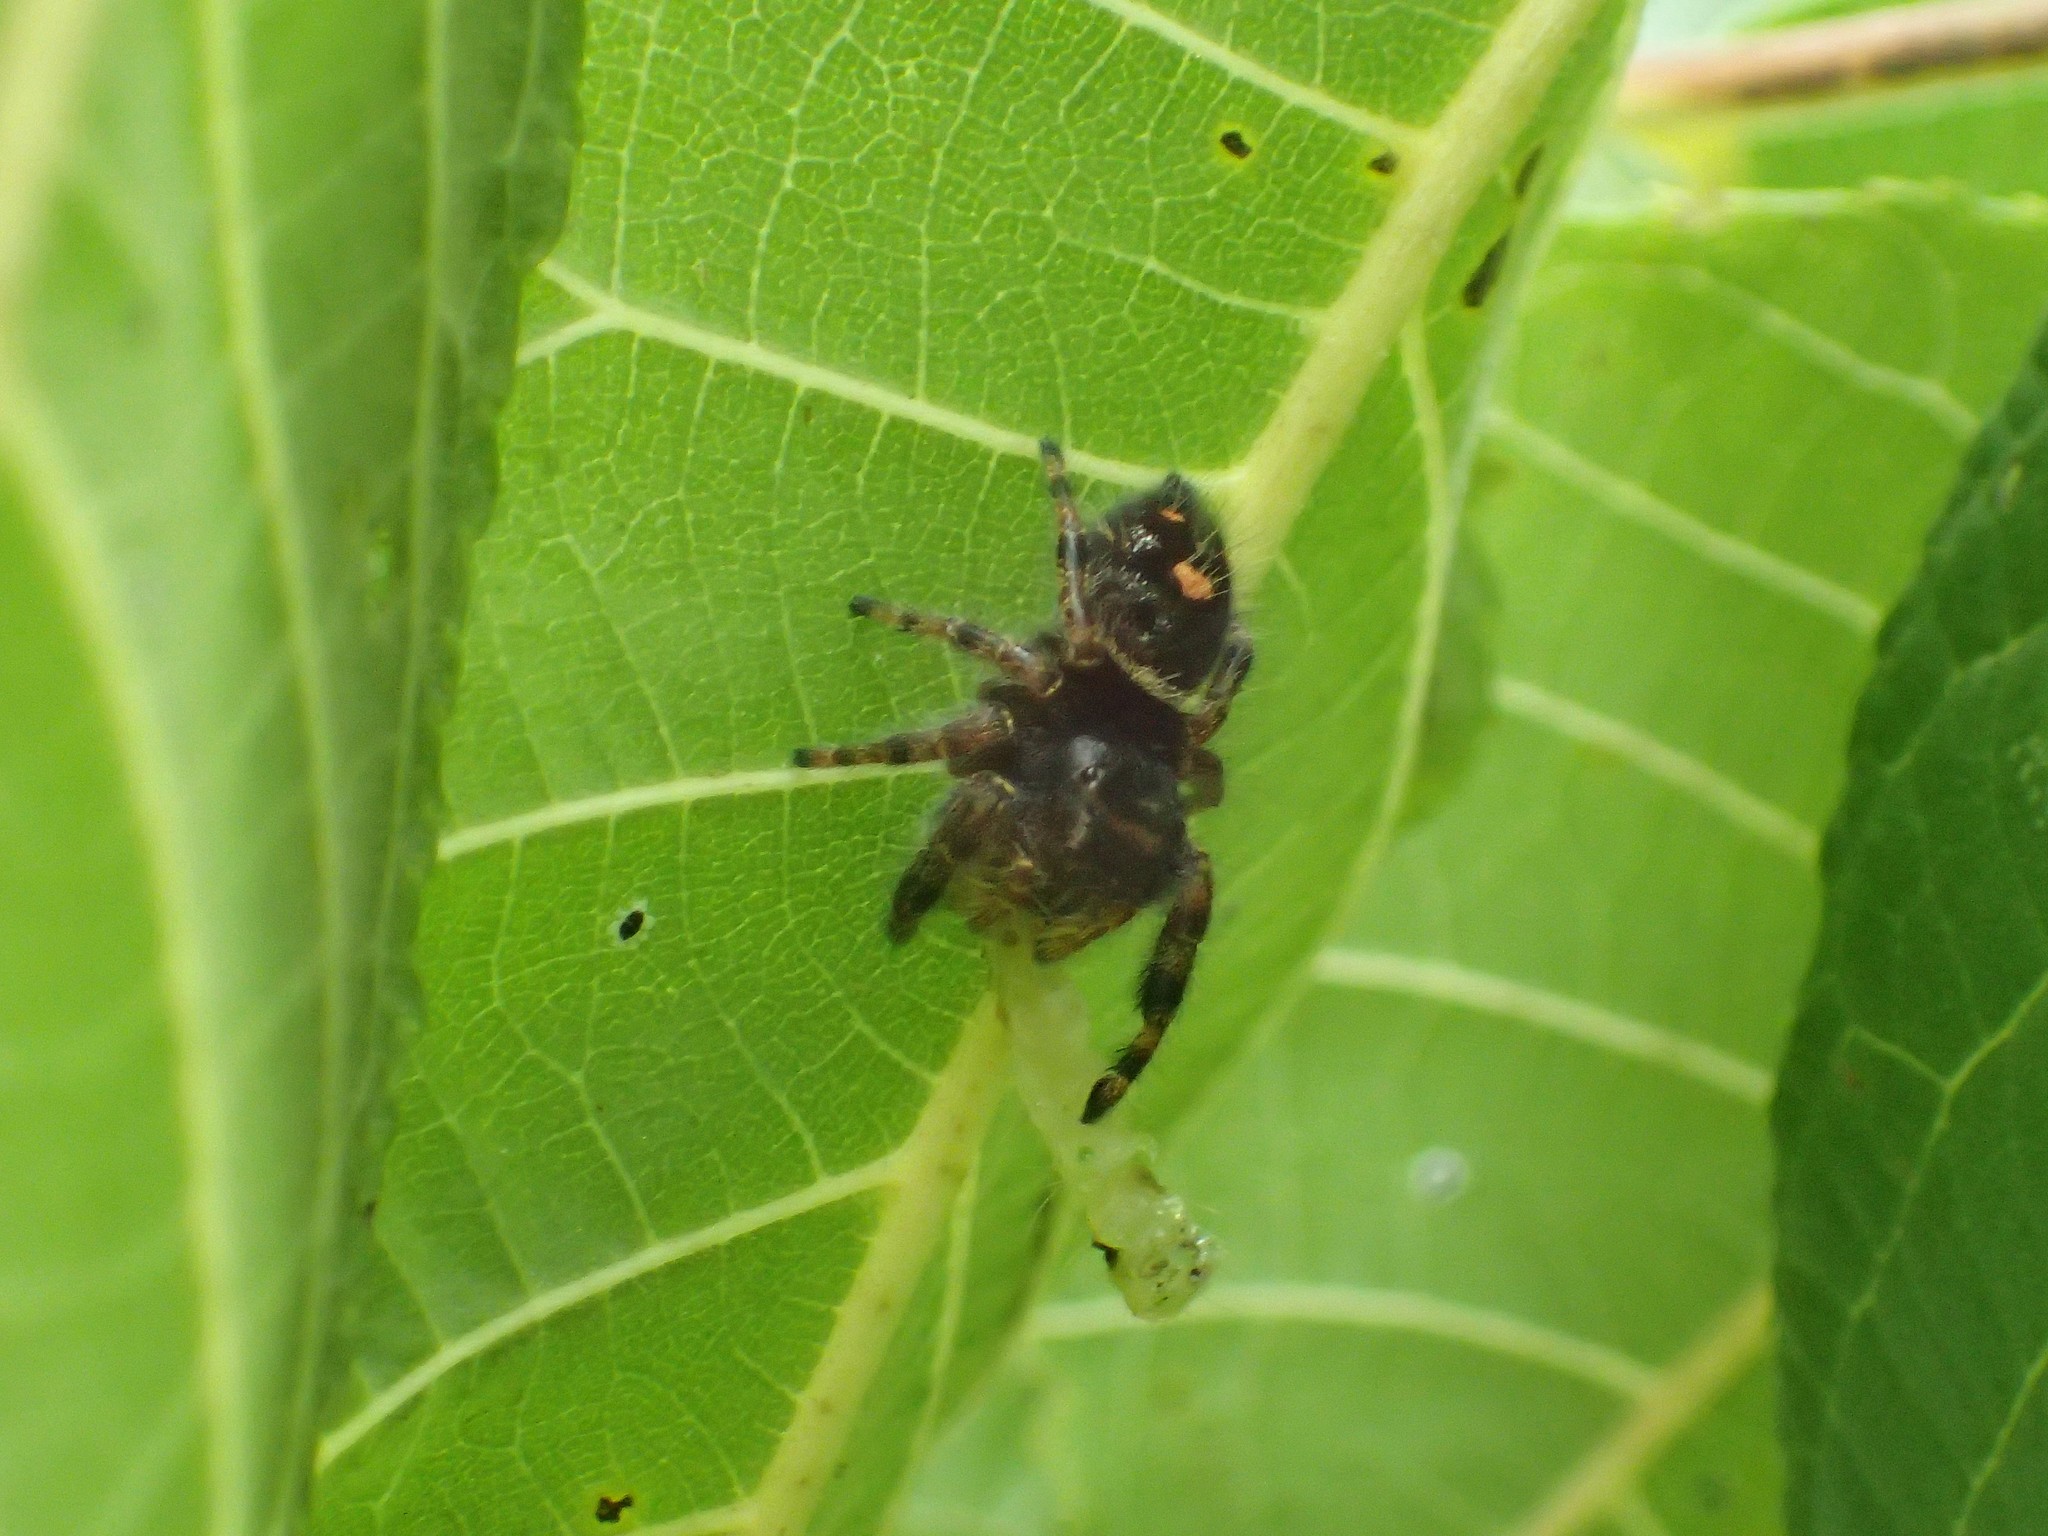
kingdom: Animalia
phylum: Arthropoda
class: Arachnida
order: Araneae
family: Salticidae
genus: Phidippus
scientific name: Phidippus audax
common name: Bold jumper
